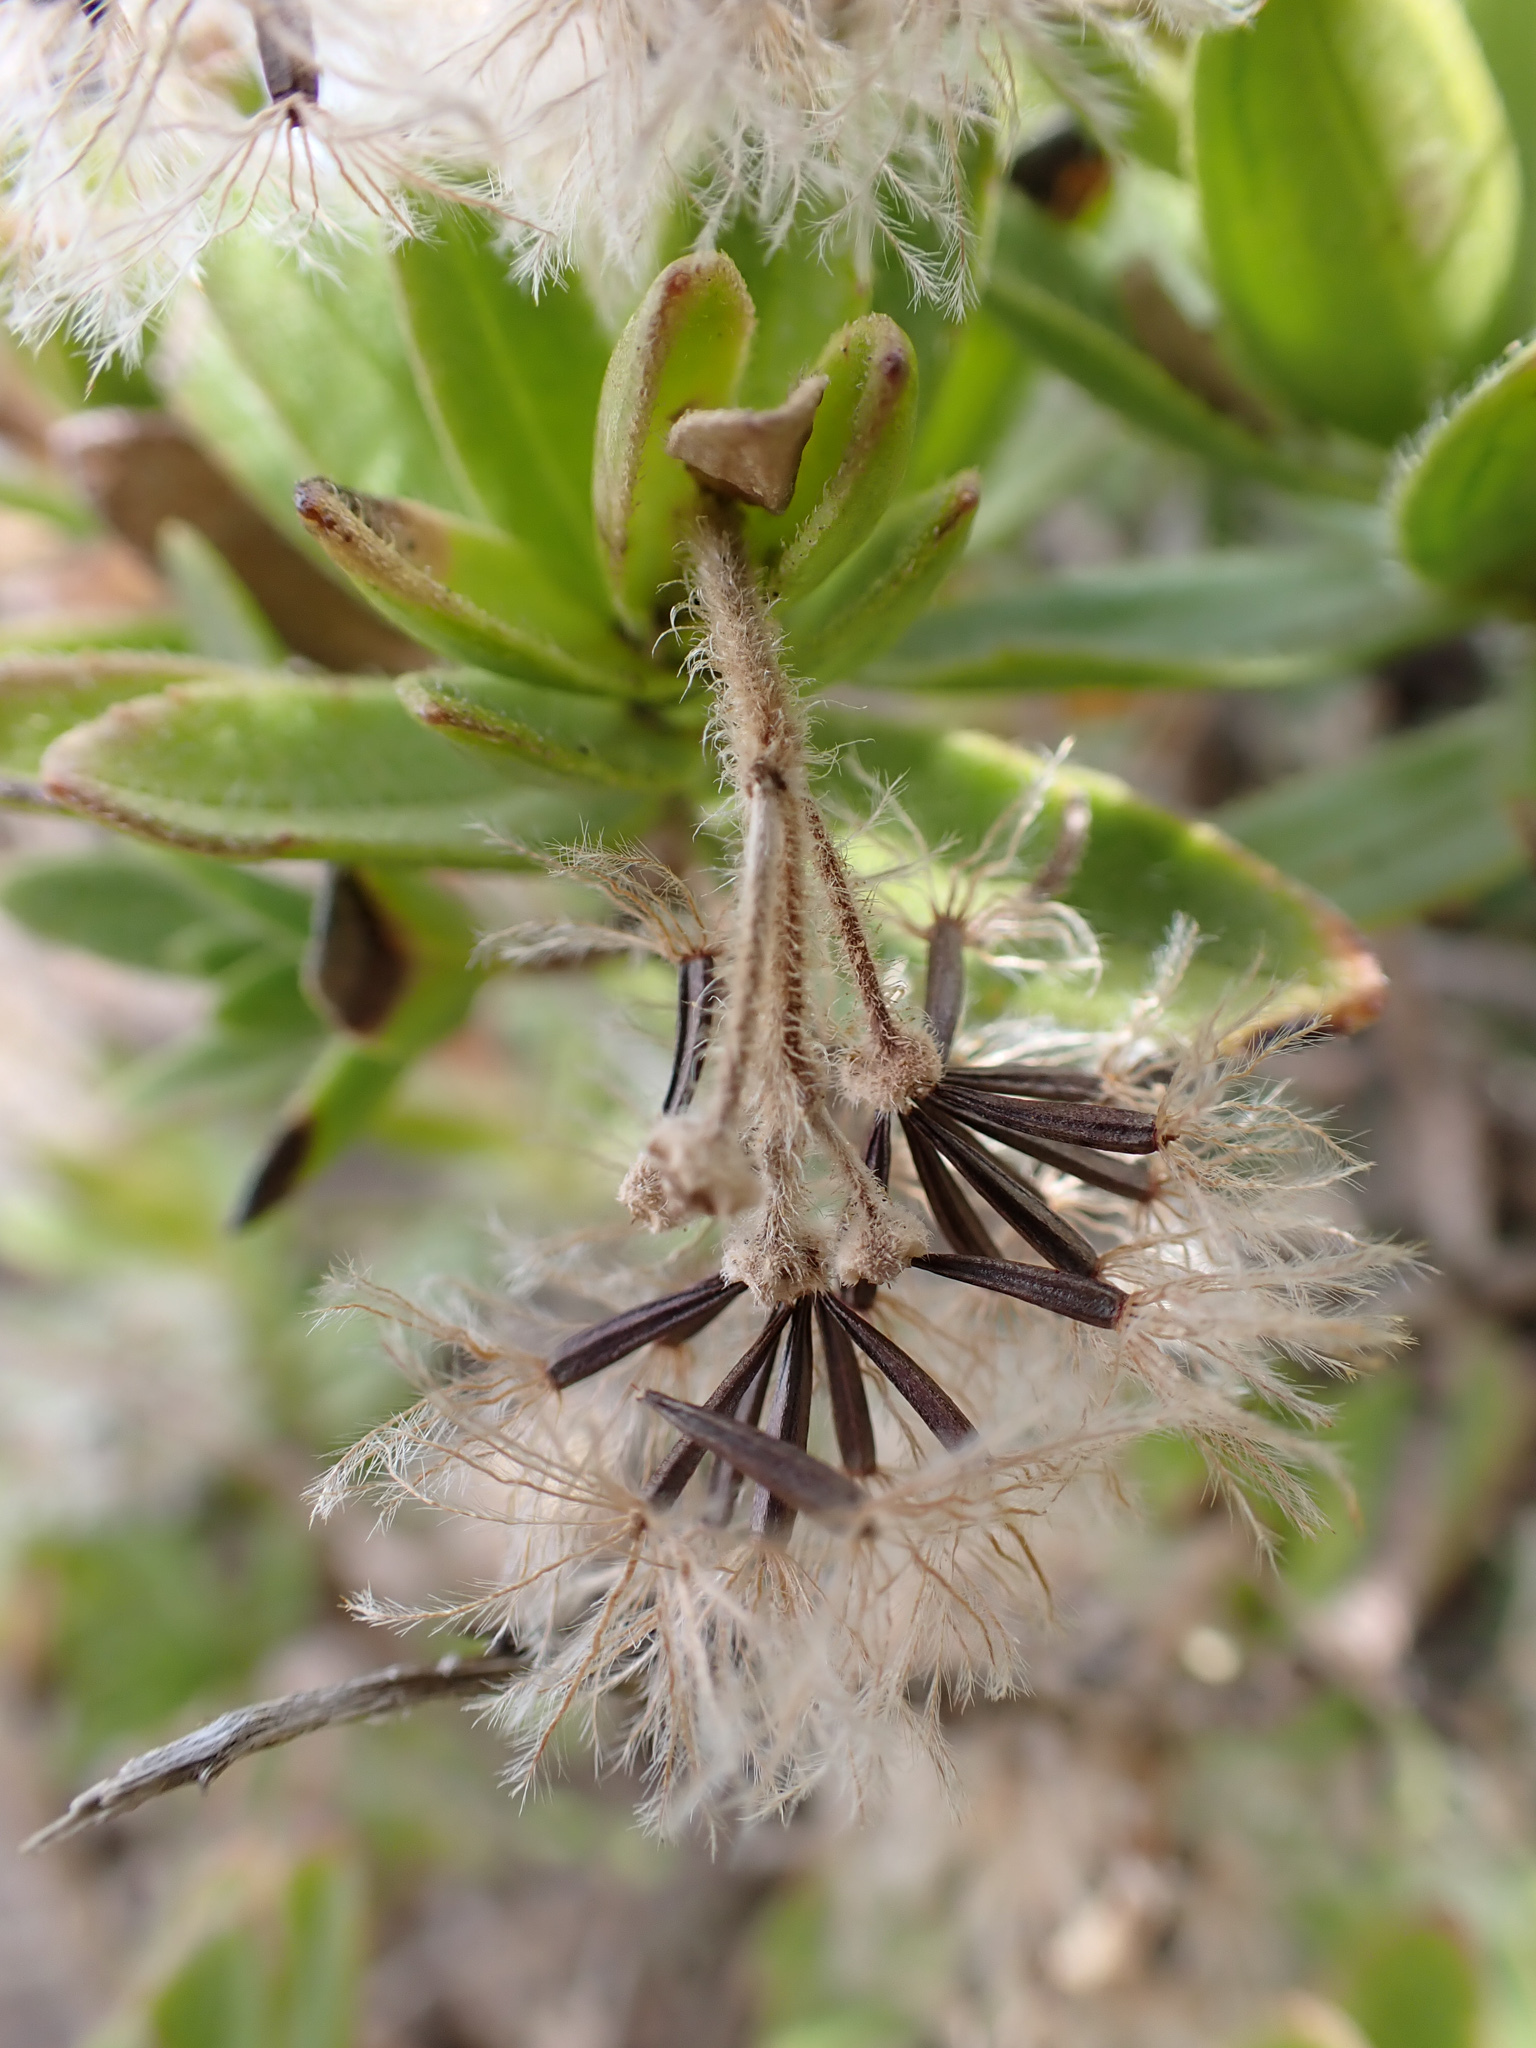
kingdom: Plantae
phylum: Tracheophyta
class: Magnoliopsida
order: Asterales
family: Asteraceae
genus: Dubautia
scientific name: Dubautia menziesii
